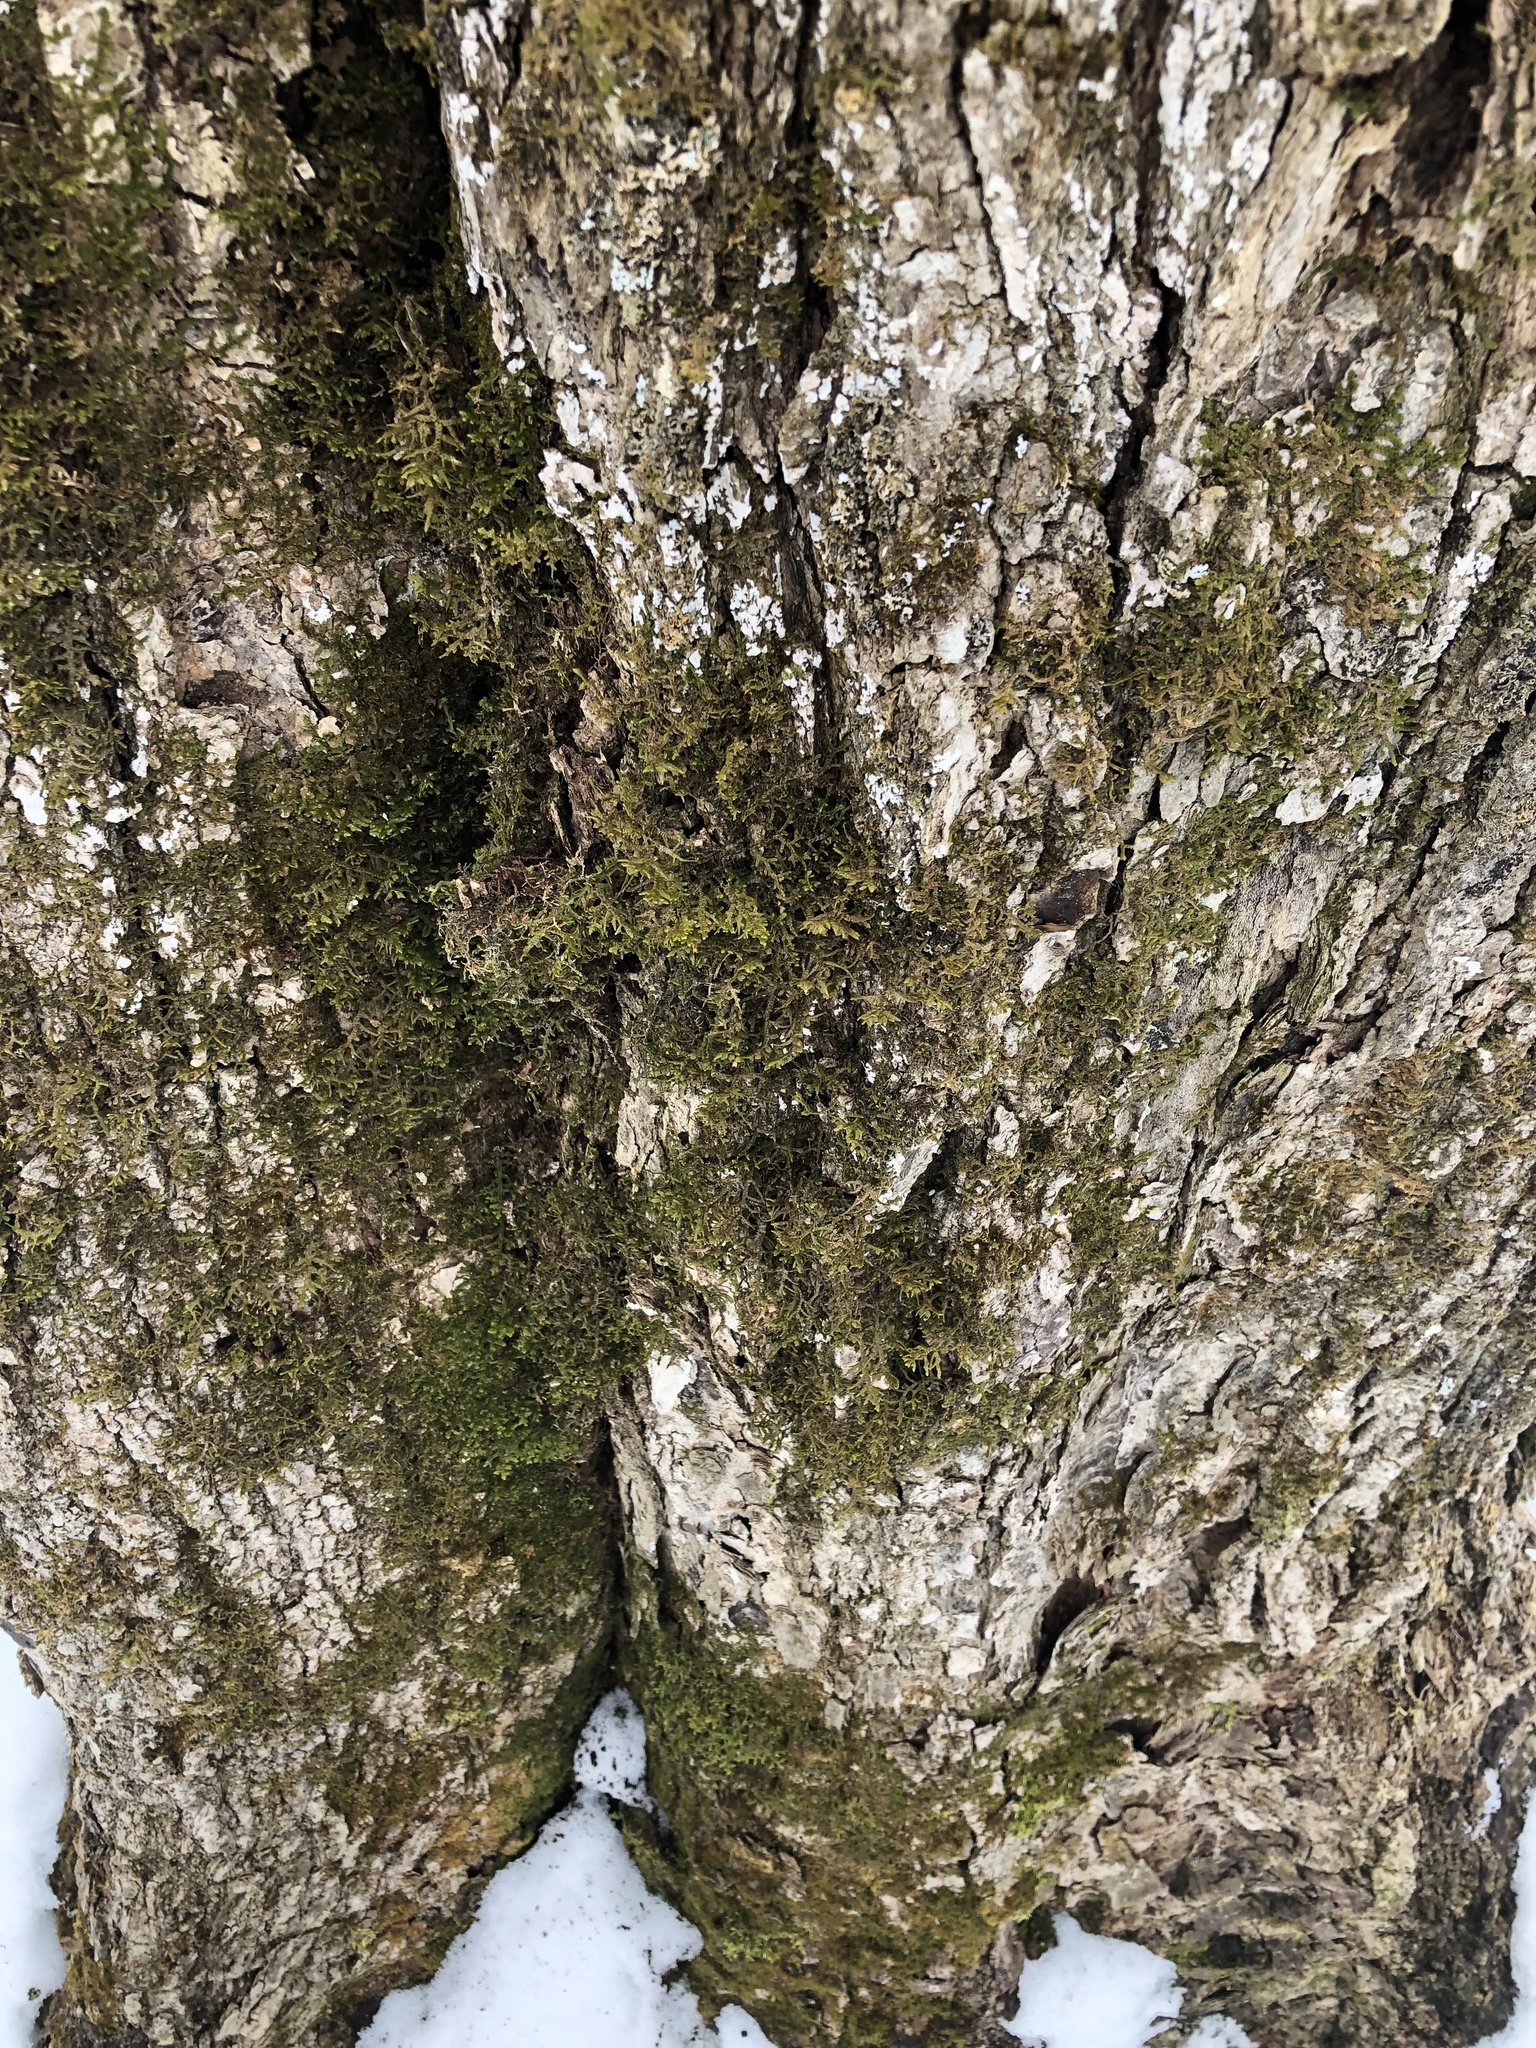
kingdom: Plantae
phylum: Marchantiophyta
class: Jungermanniopsida
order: Porellales
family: Porellaceae
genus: Porella
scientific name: Porella platyphylla
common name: Wall scalewort
